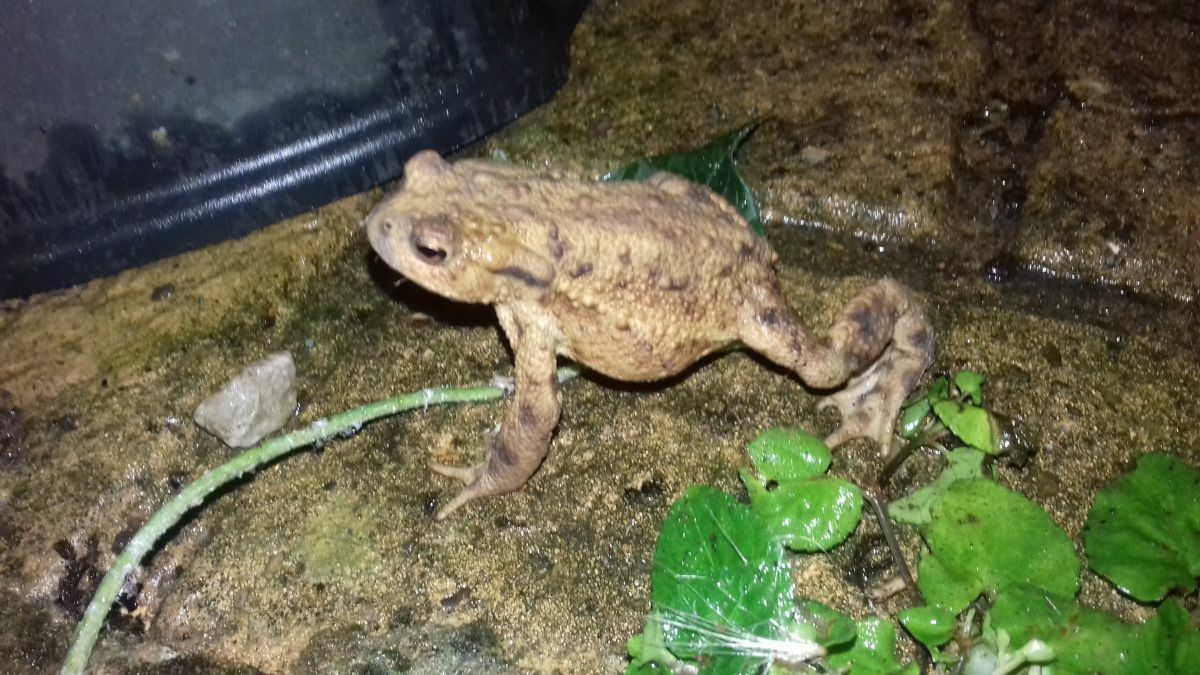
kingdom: Animalia
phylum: Chordata
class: Amphibia
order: Anura
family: Bufonidae
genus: Bufo
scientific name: Bufo bufo
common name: Common toad
